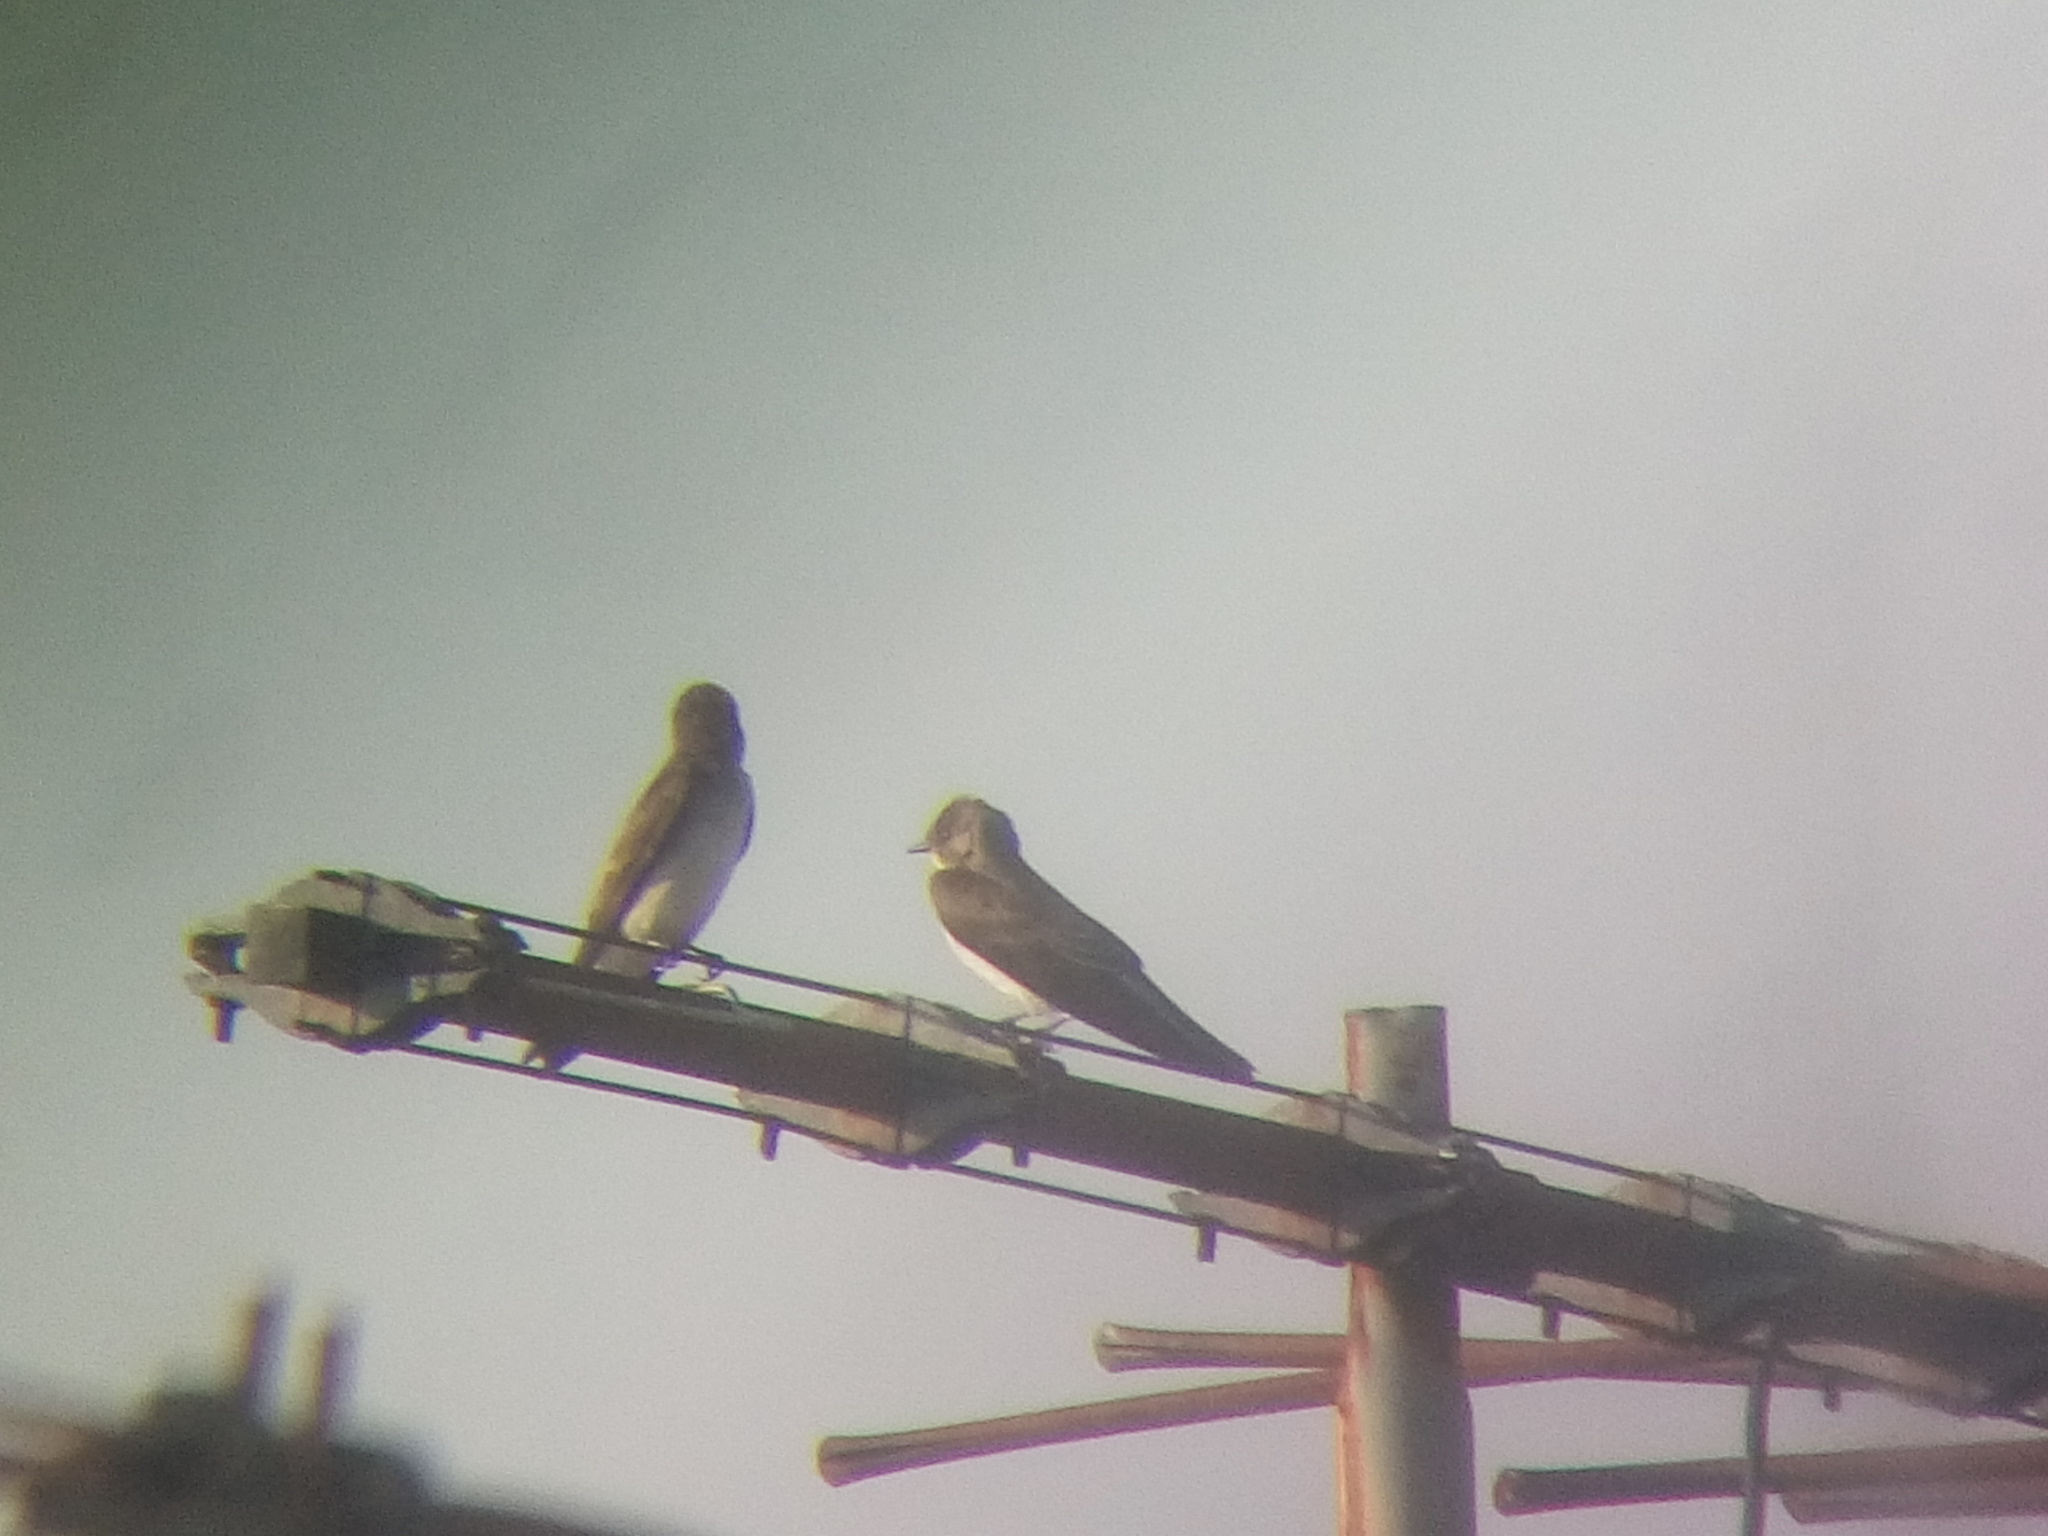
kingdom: Animalia
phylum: Chordata
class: Aves
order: Passeriformes
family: Hirundinidae
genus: Stelgidopteryx
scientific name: Stelgidopteryx serripennis
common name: Northern rough-winged swallow
